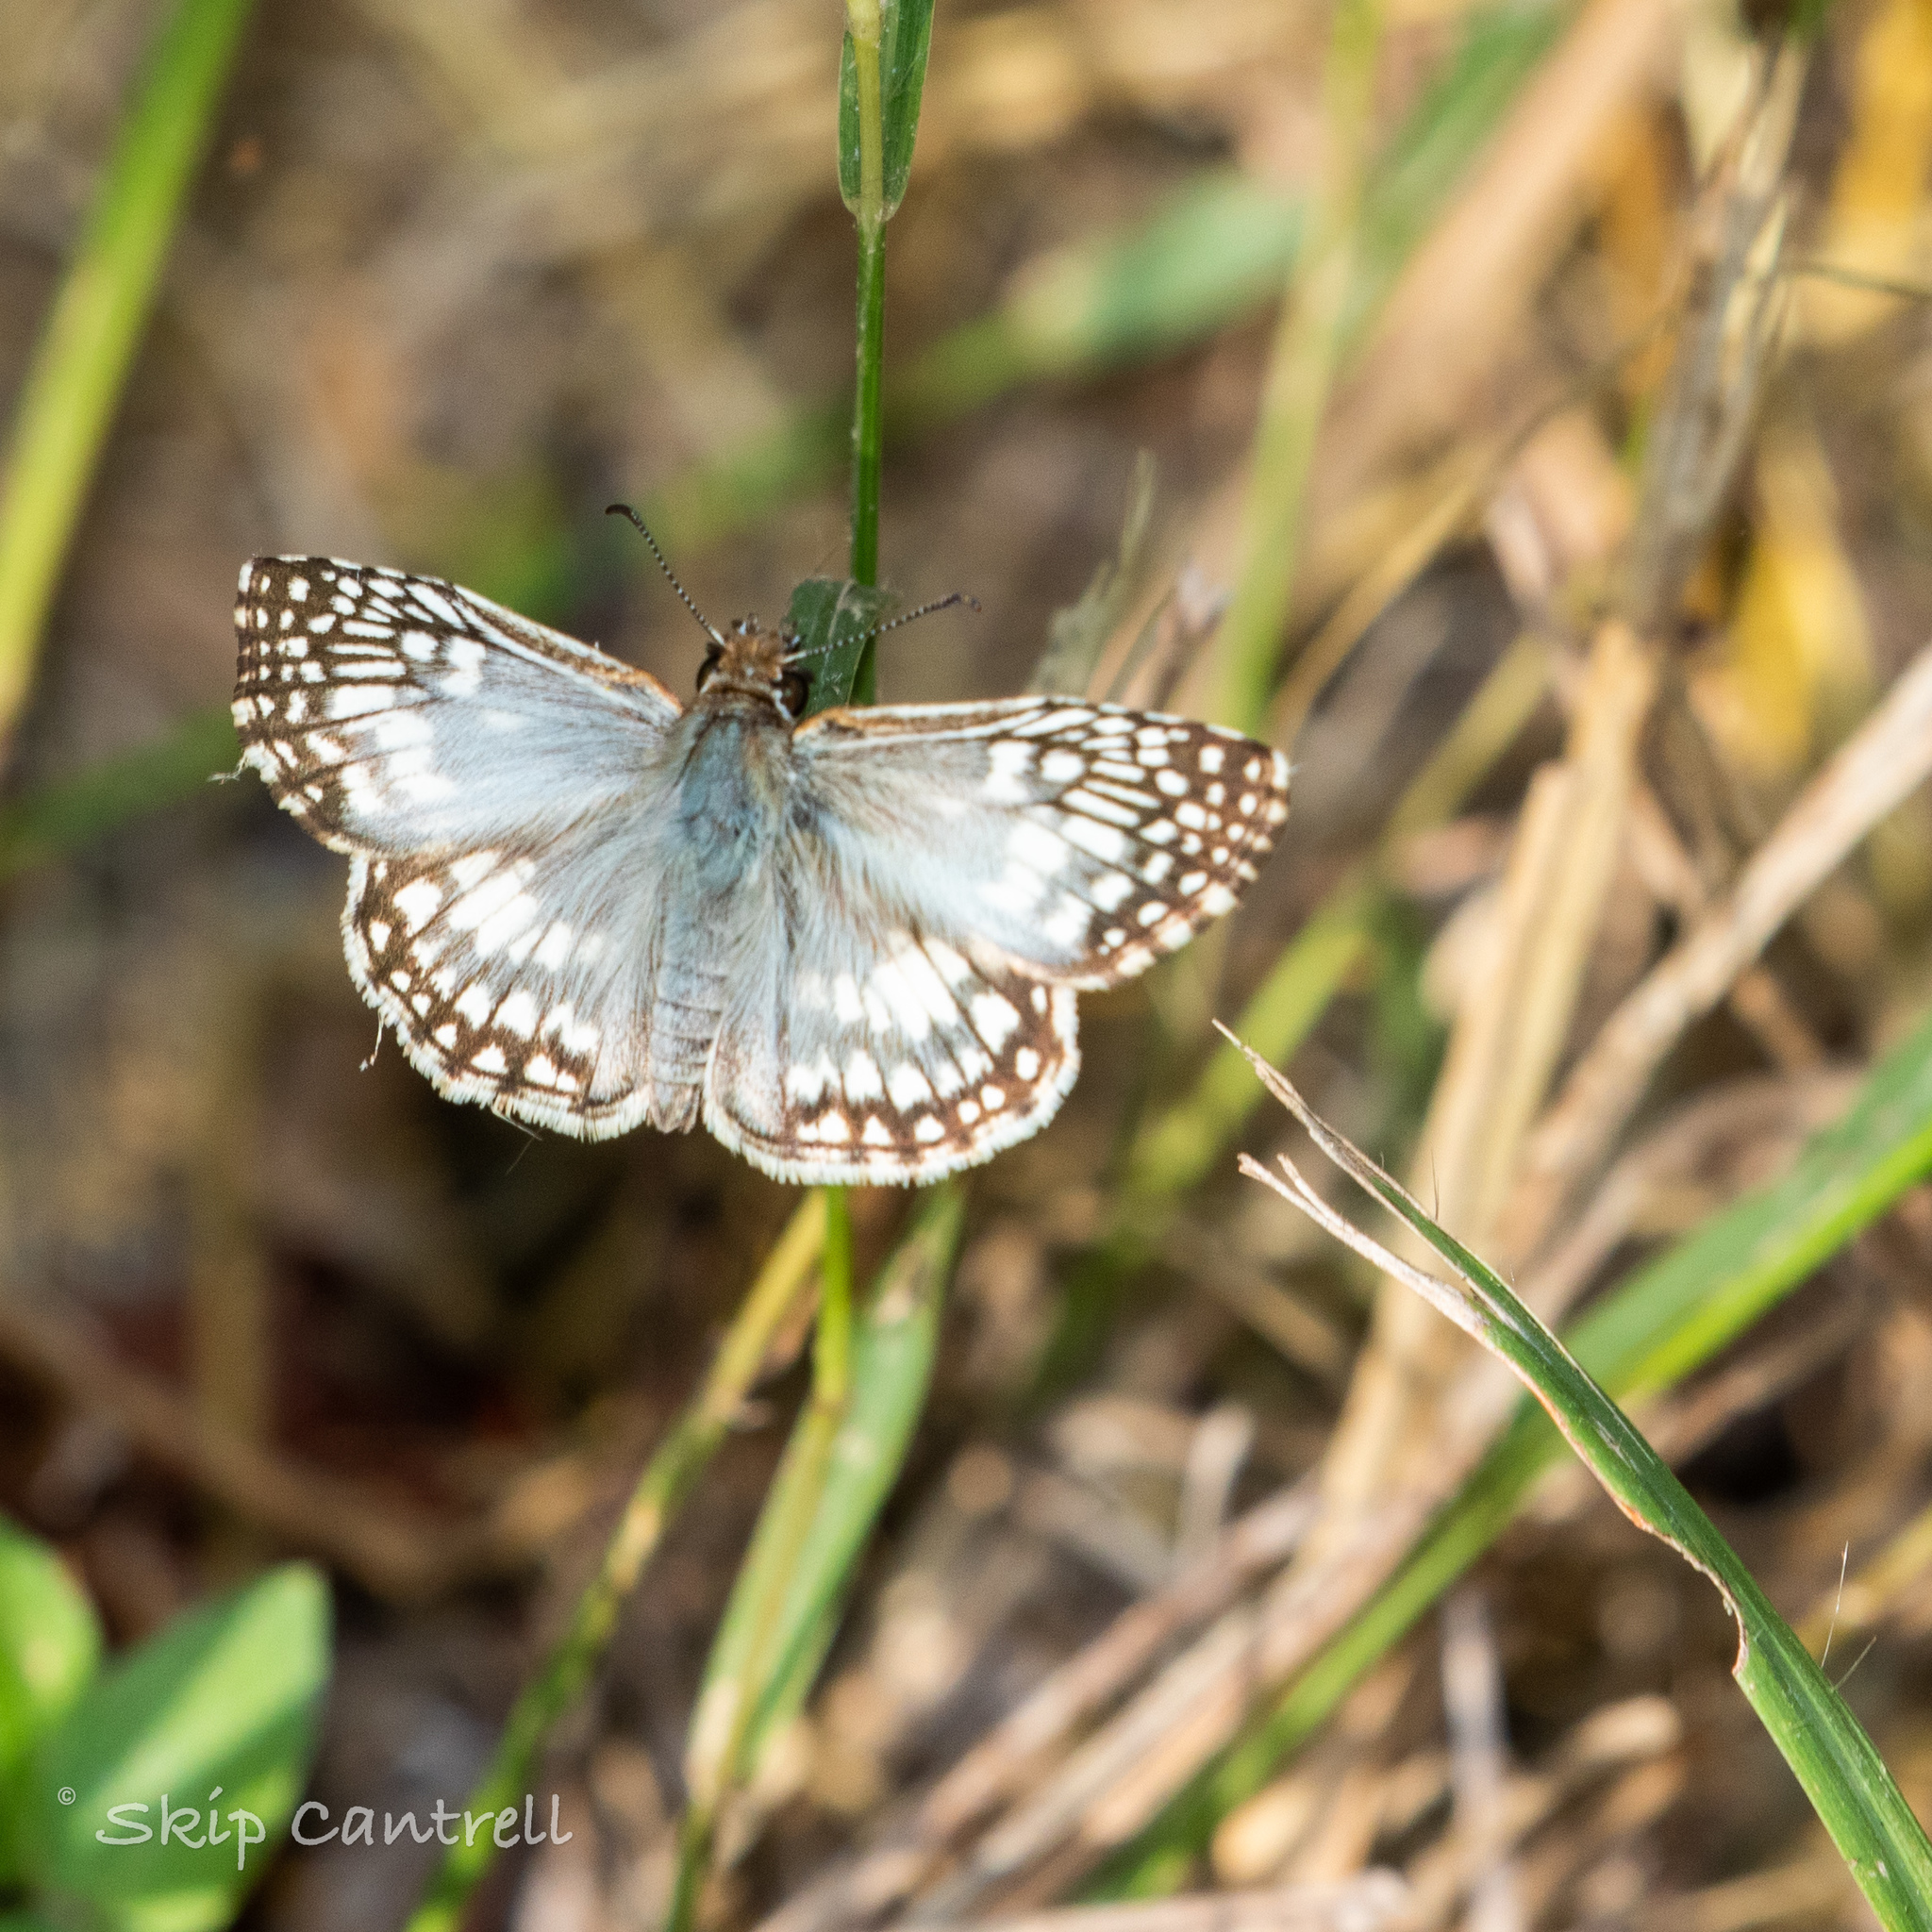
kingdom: Animalia
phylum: Arthropoda
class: Insecta
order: Lepidoptera
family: Hesperiidae
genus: Pyrgus
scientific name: Pyrgus oileus
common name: Tropical checkered-skipper
